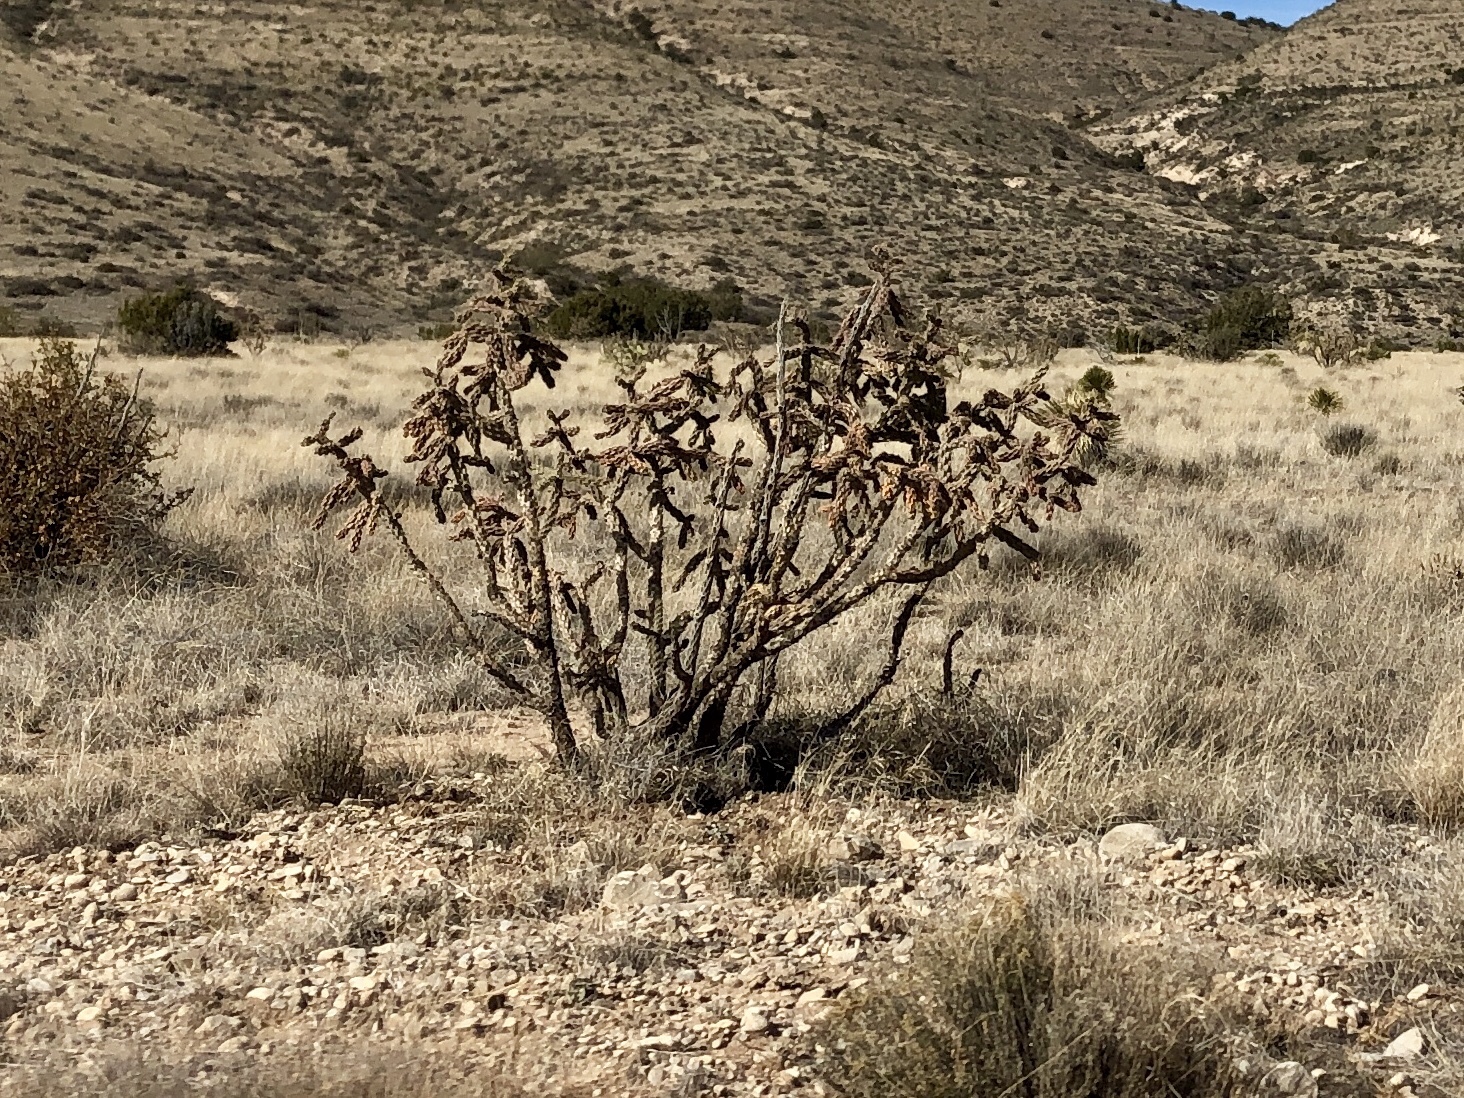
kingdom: Plantae
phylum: Tracheophyta
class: Magnoliopsida
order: Caryophyllales
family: Cactaceae
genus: Cylindropuntia
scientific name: Cylindropuntia imbricata
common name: Candelabrum cactus
